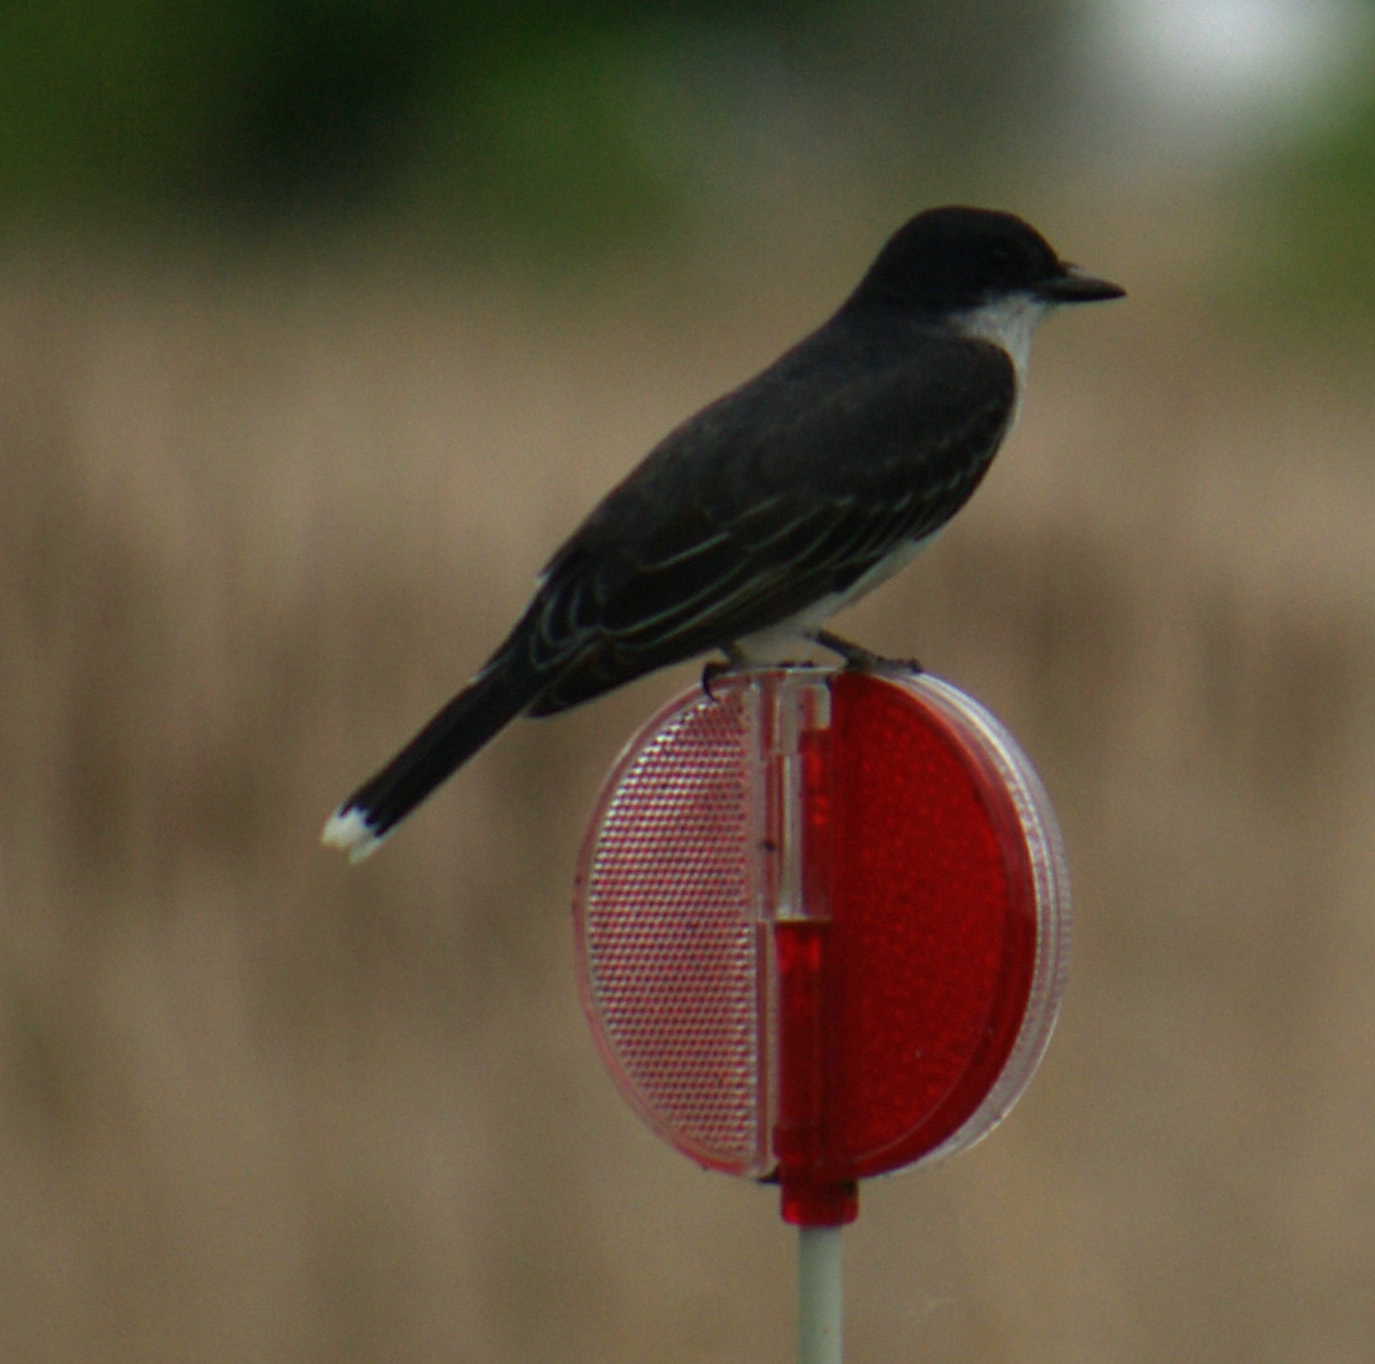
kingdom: Animalia
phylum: Chordata
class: Aves
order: Passeriformes
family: Tyrannidae
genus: Tyrannus
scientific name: Tyrannus tyrannus
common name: Eastern kingbird
